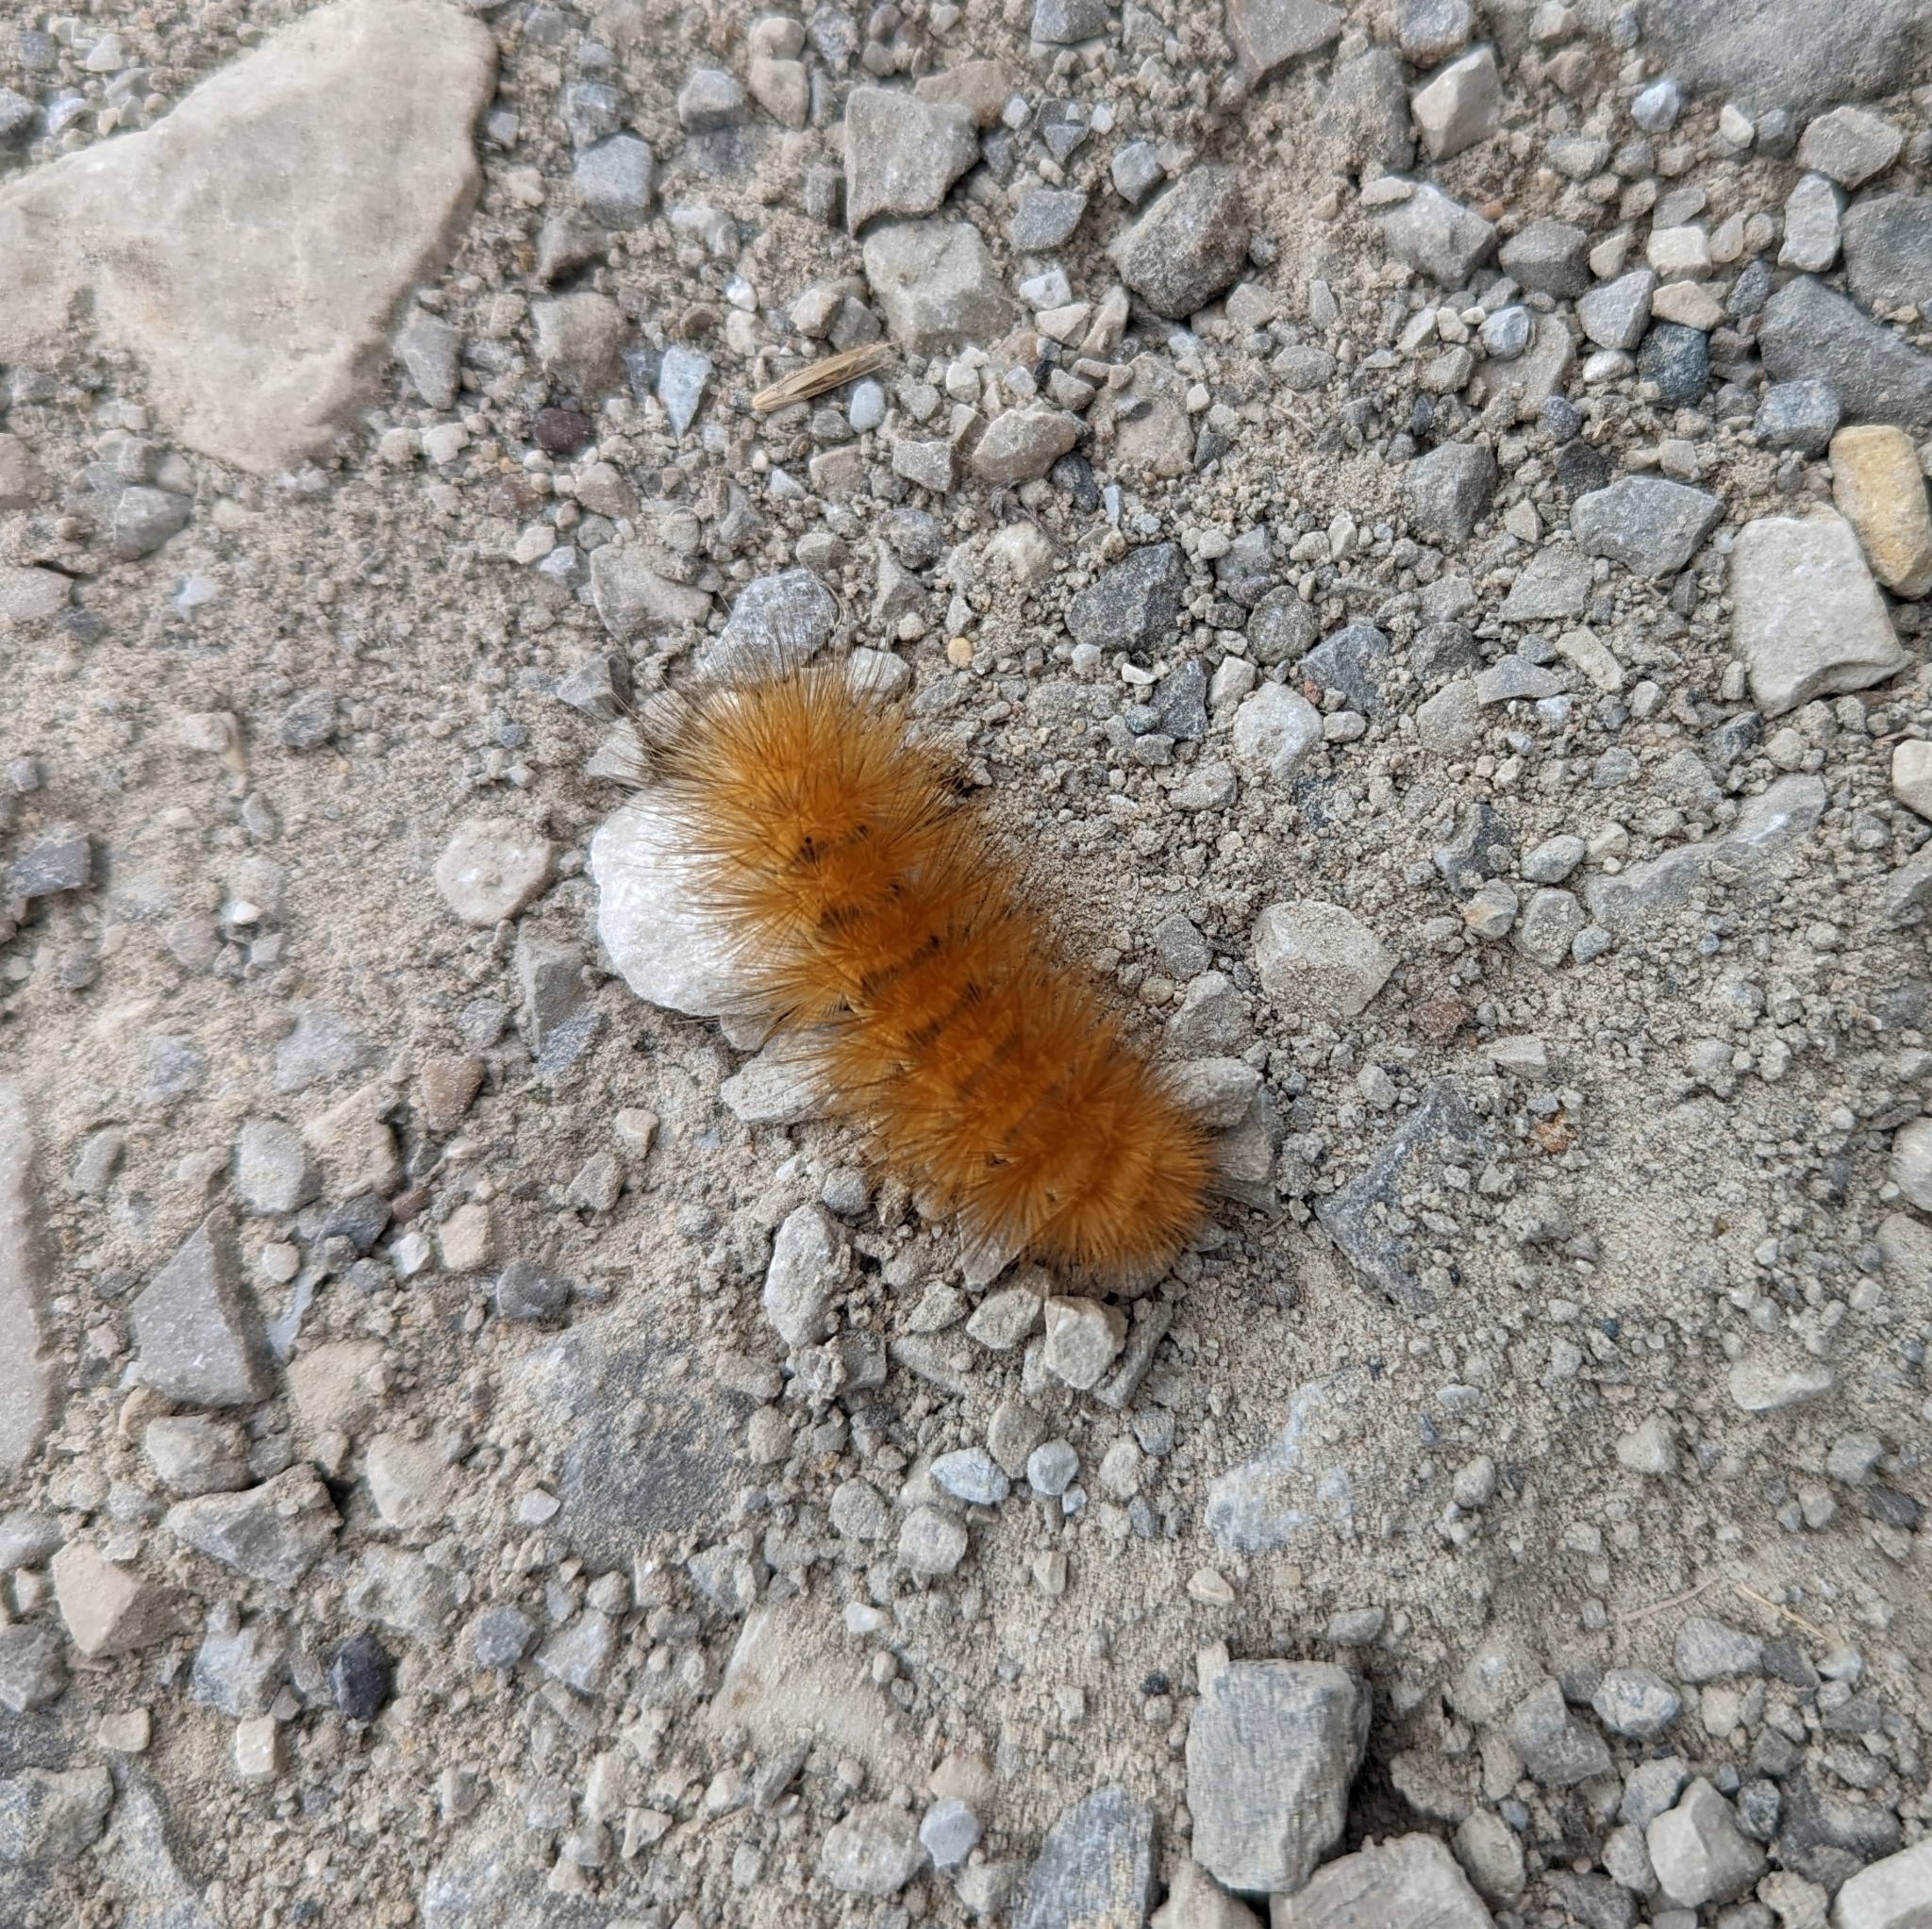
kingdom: Animalia
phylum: Arthropoda
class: Insecta
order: Lepidoptera
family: Erebidae
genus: Spilosoma
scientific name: Spilosoma virginica
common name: Virginia tiger moth
